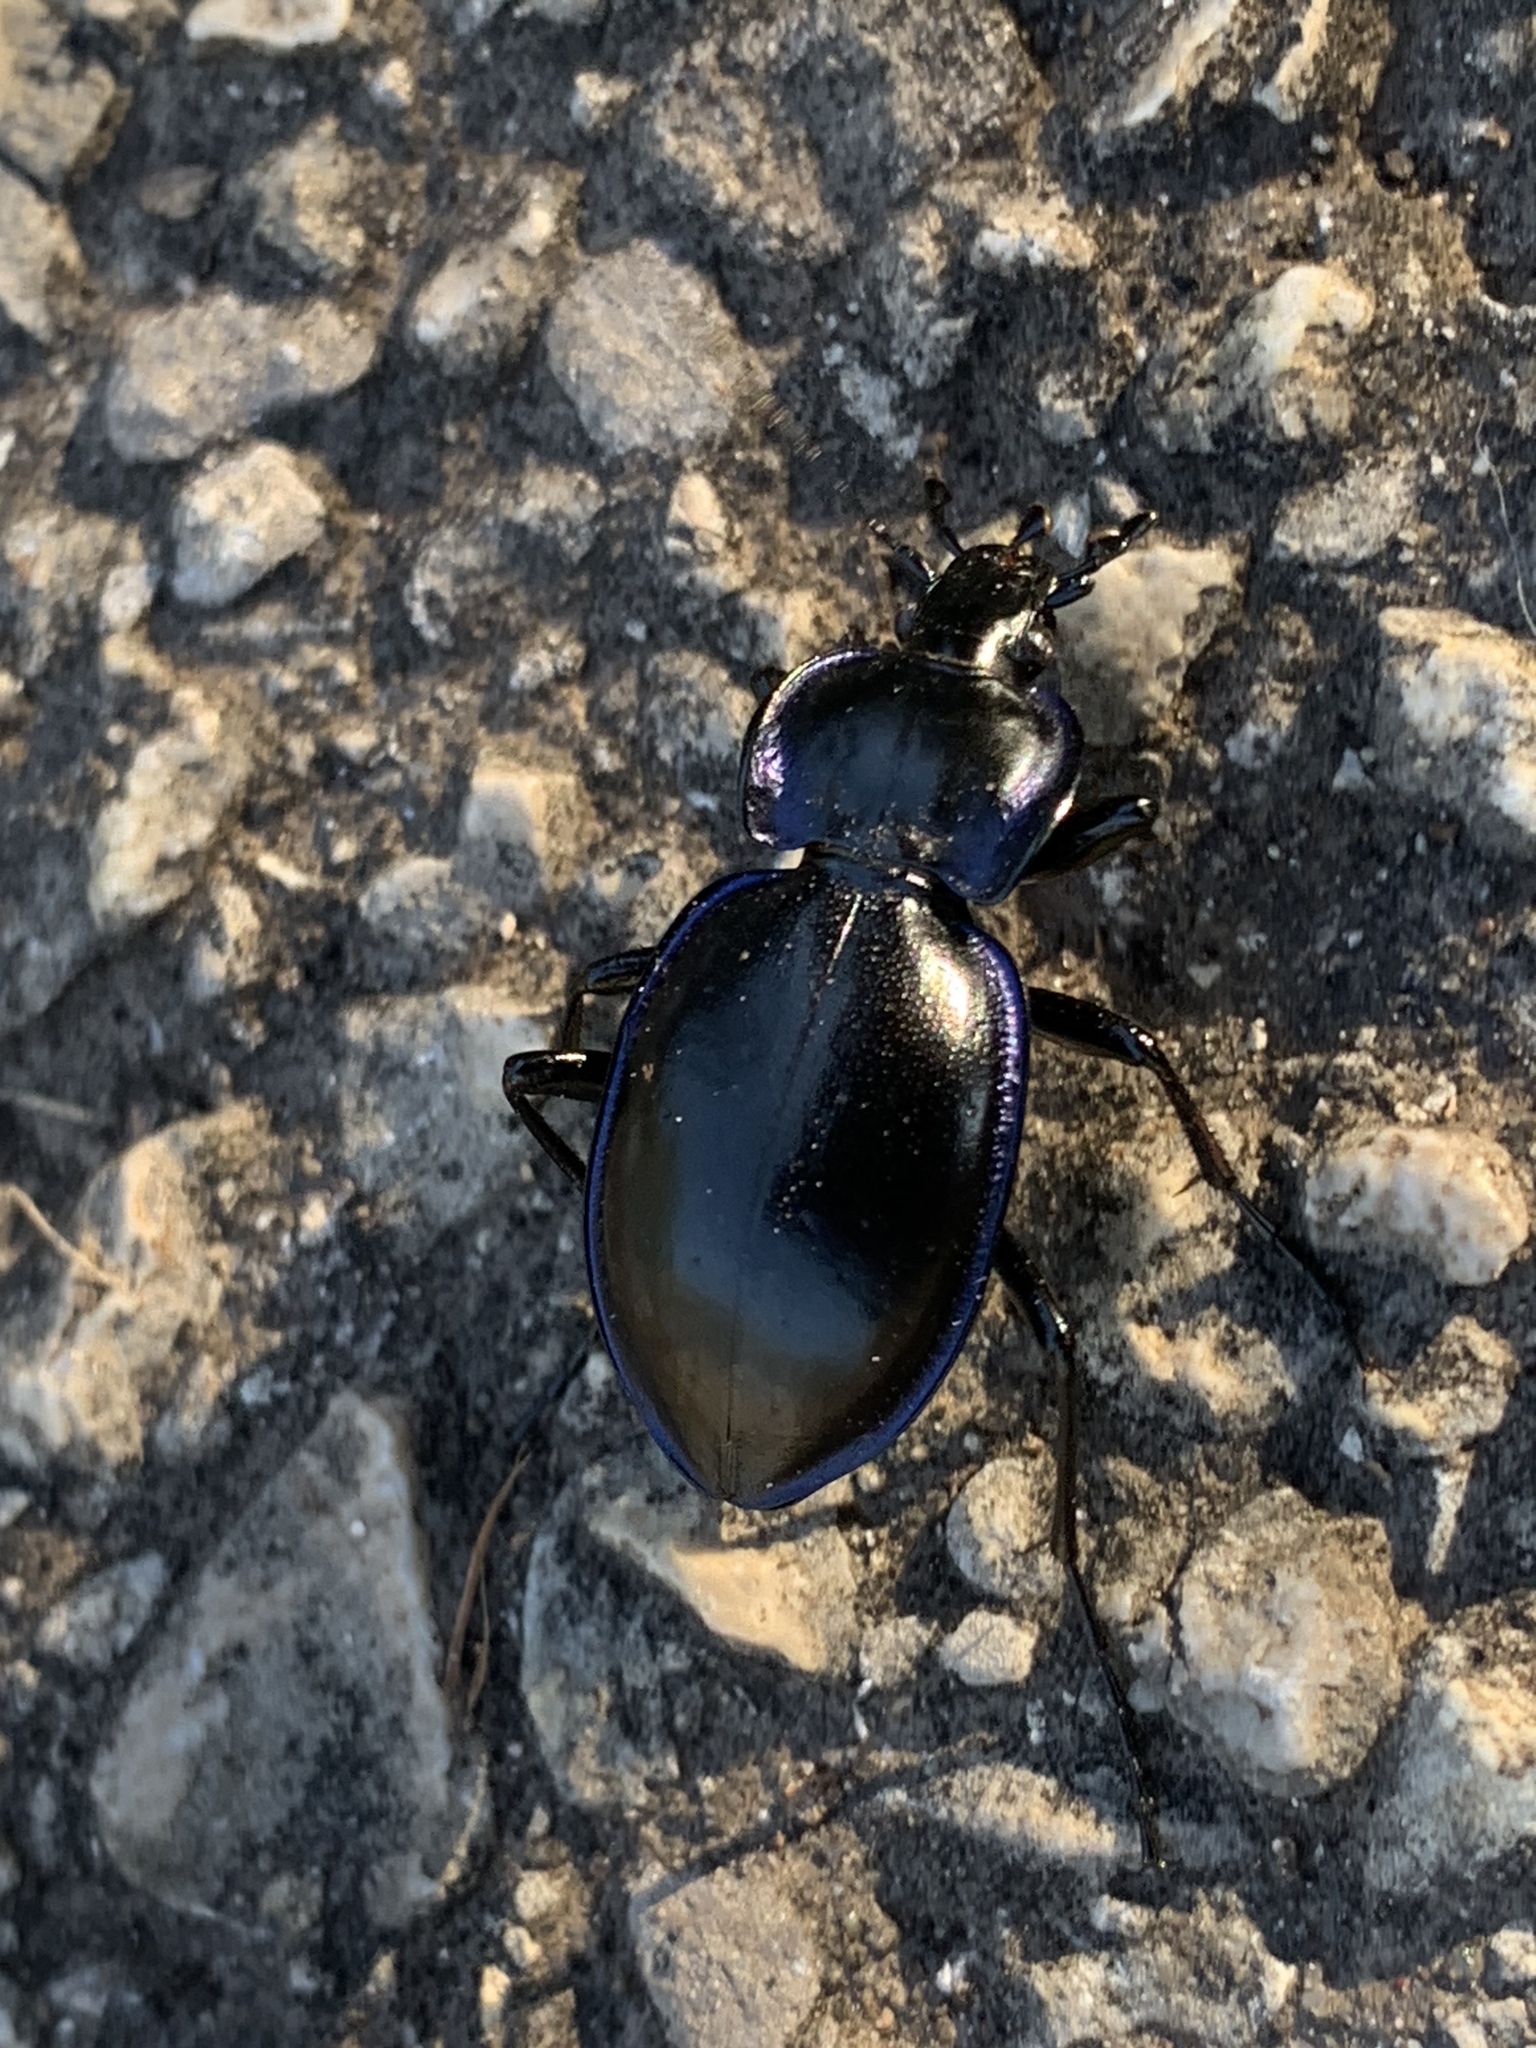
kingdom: Animalia
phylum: Arthropoda
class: Insecta
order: Coleoptera
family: Carabidae
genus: Carabus
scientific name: Carabus finitimus
